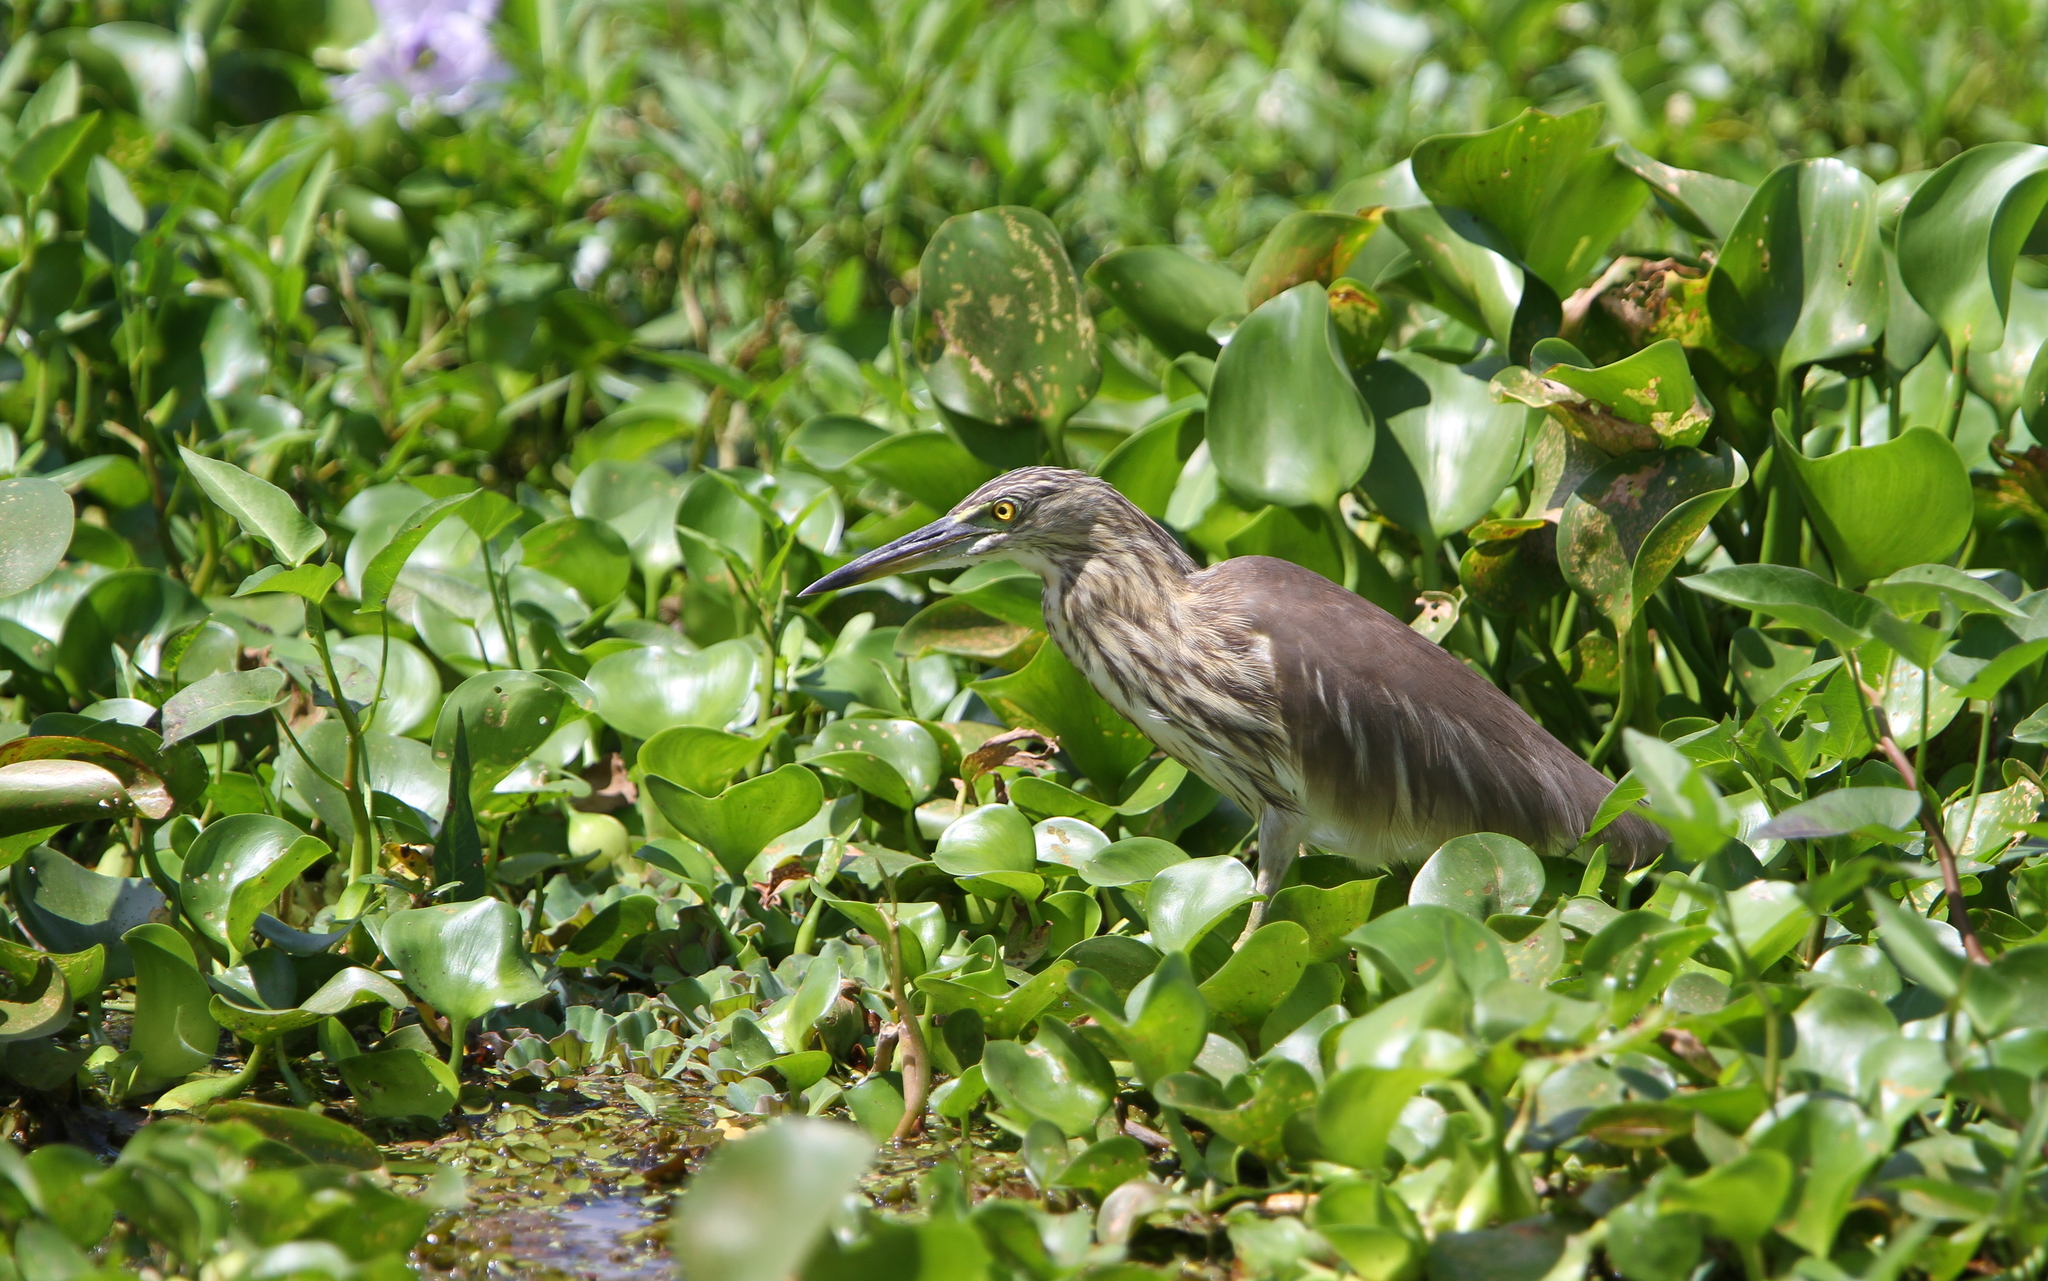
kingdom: Animalia
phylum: Chordata
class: Aves
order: Pelecaniformes
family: Ardeidae
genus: Ardeola
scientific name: Ardeola grayii
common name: Indian pond heron
